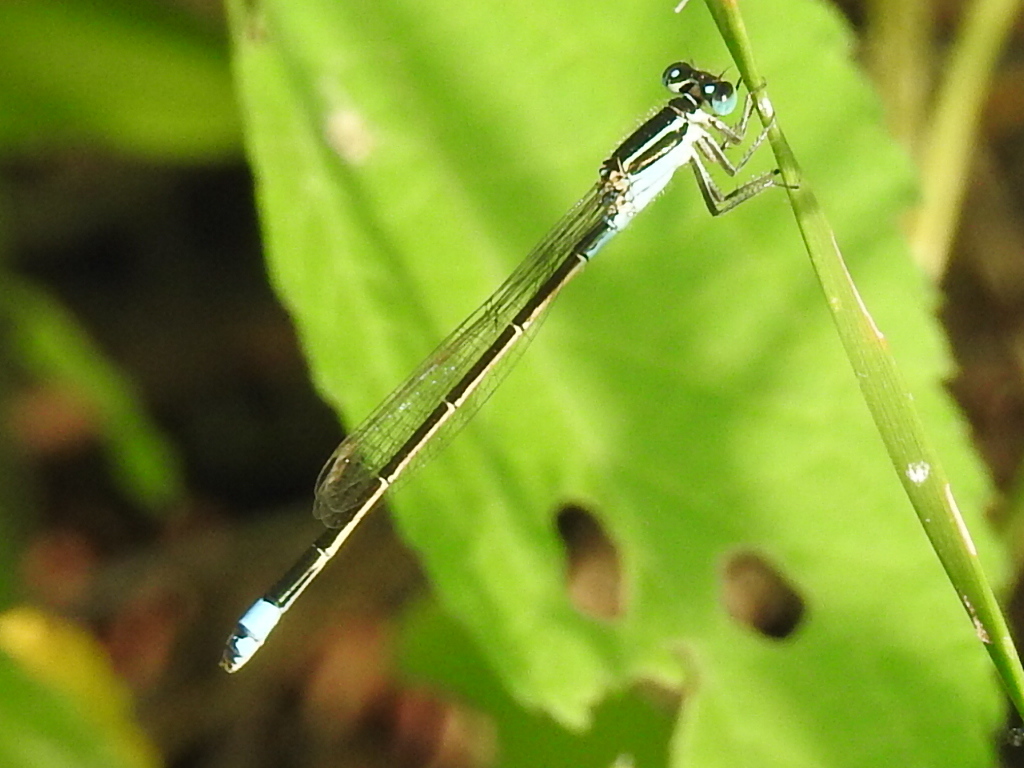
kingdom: Animalia
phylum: Arthropoda
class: Insecta
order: Odonata
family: Coenagrionidae
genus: Ischnura
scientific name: Ischnura ramburii
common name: Rambur's forktail
